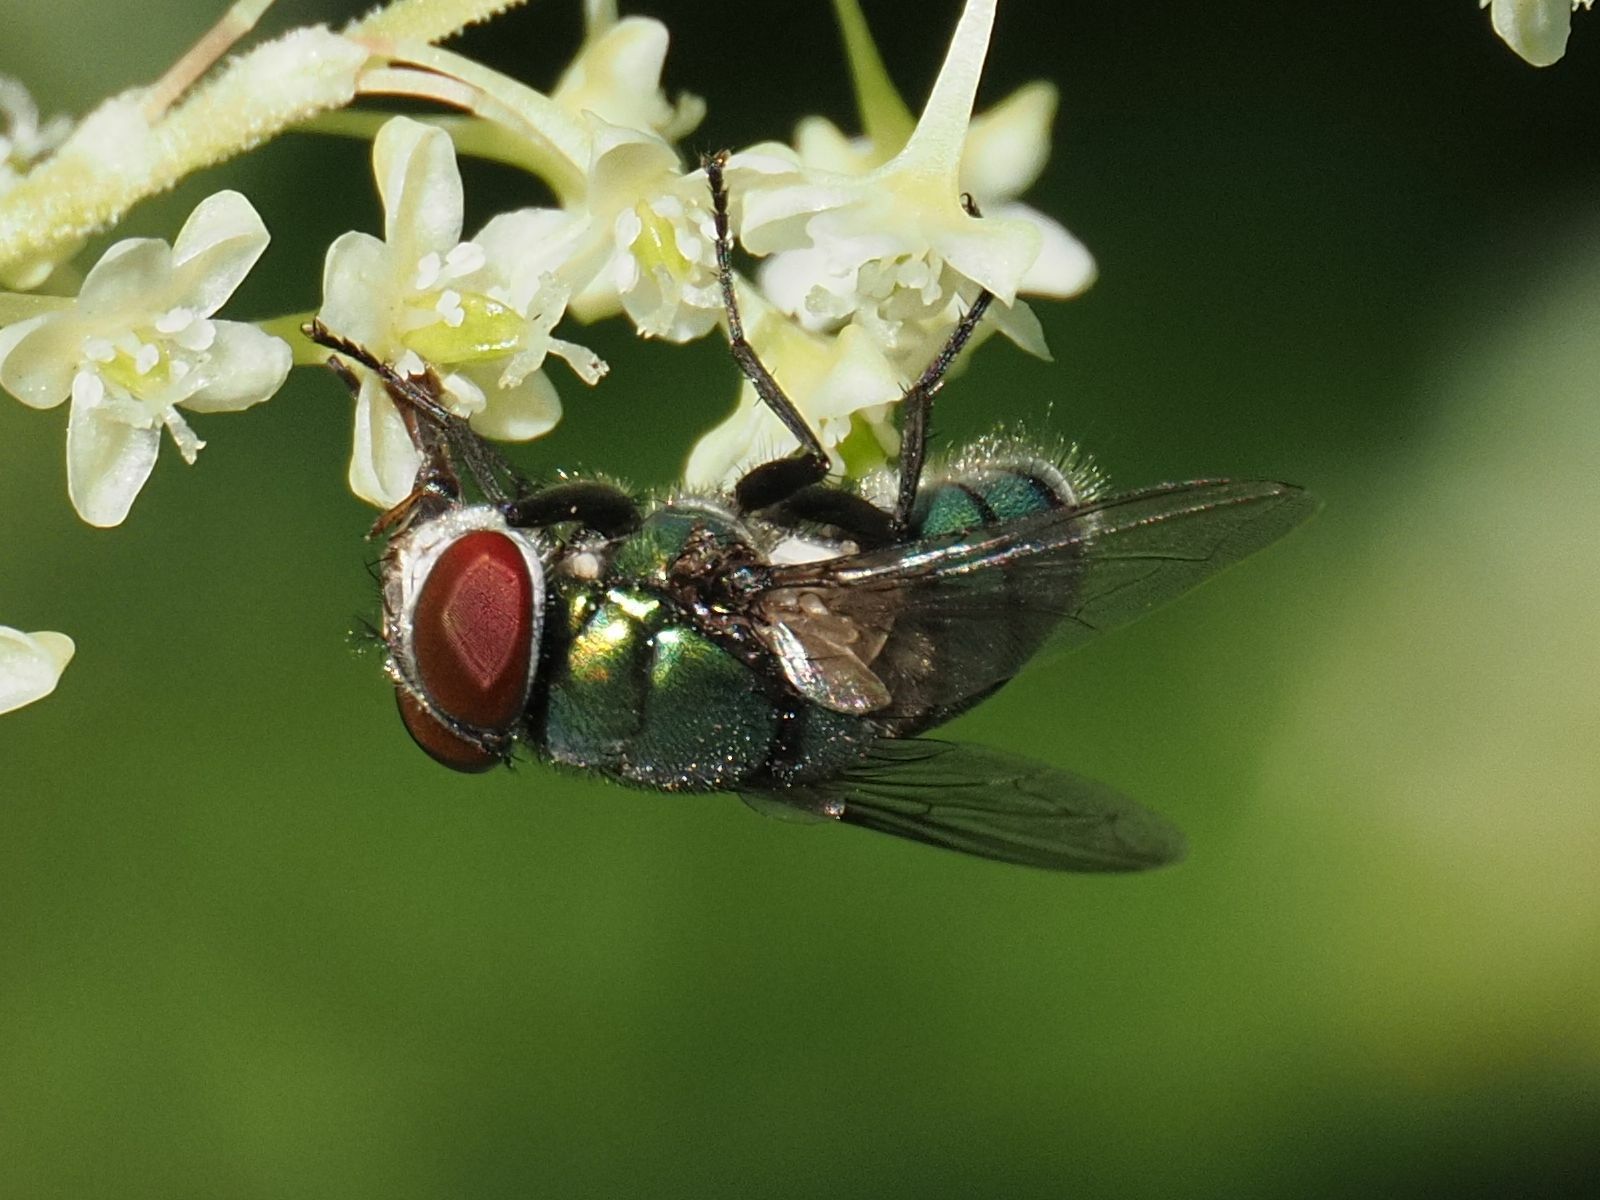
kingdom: Animalia
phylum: Arthropoda
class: Insecta
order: Diptera
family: Calliphoridae
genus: Chrysomya
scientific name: Chrysomya albiceps
